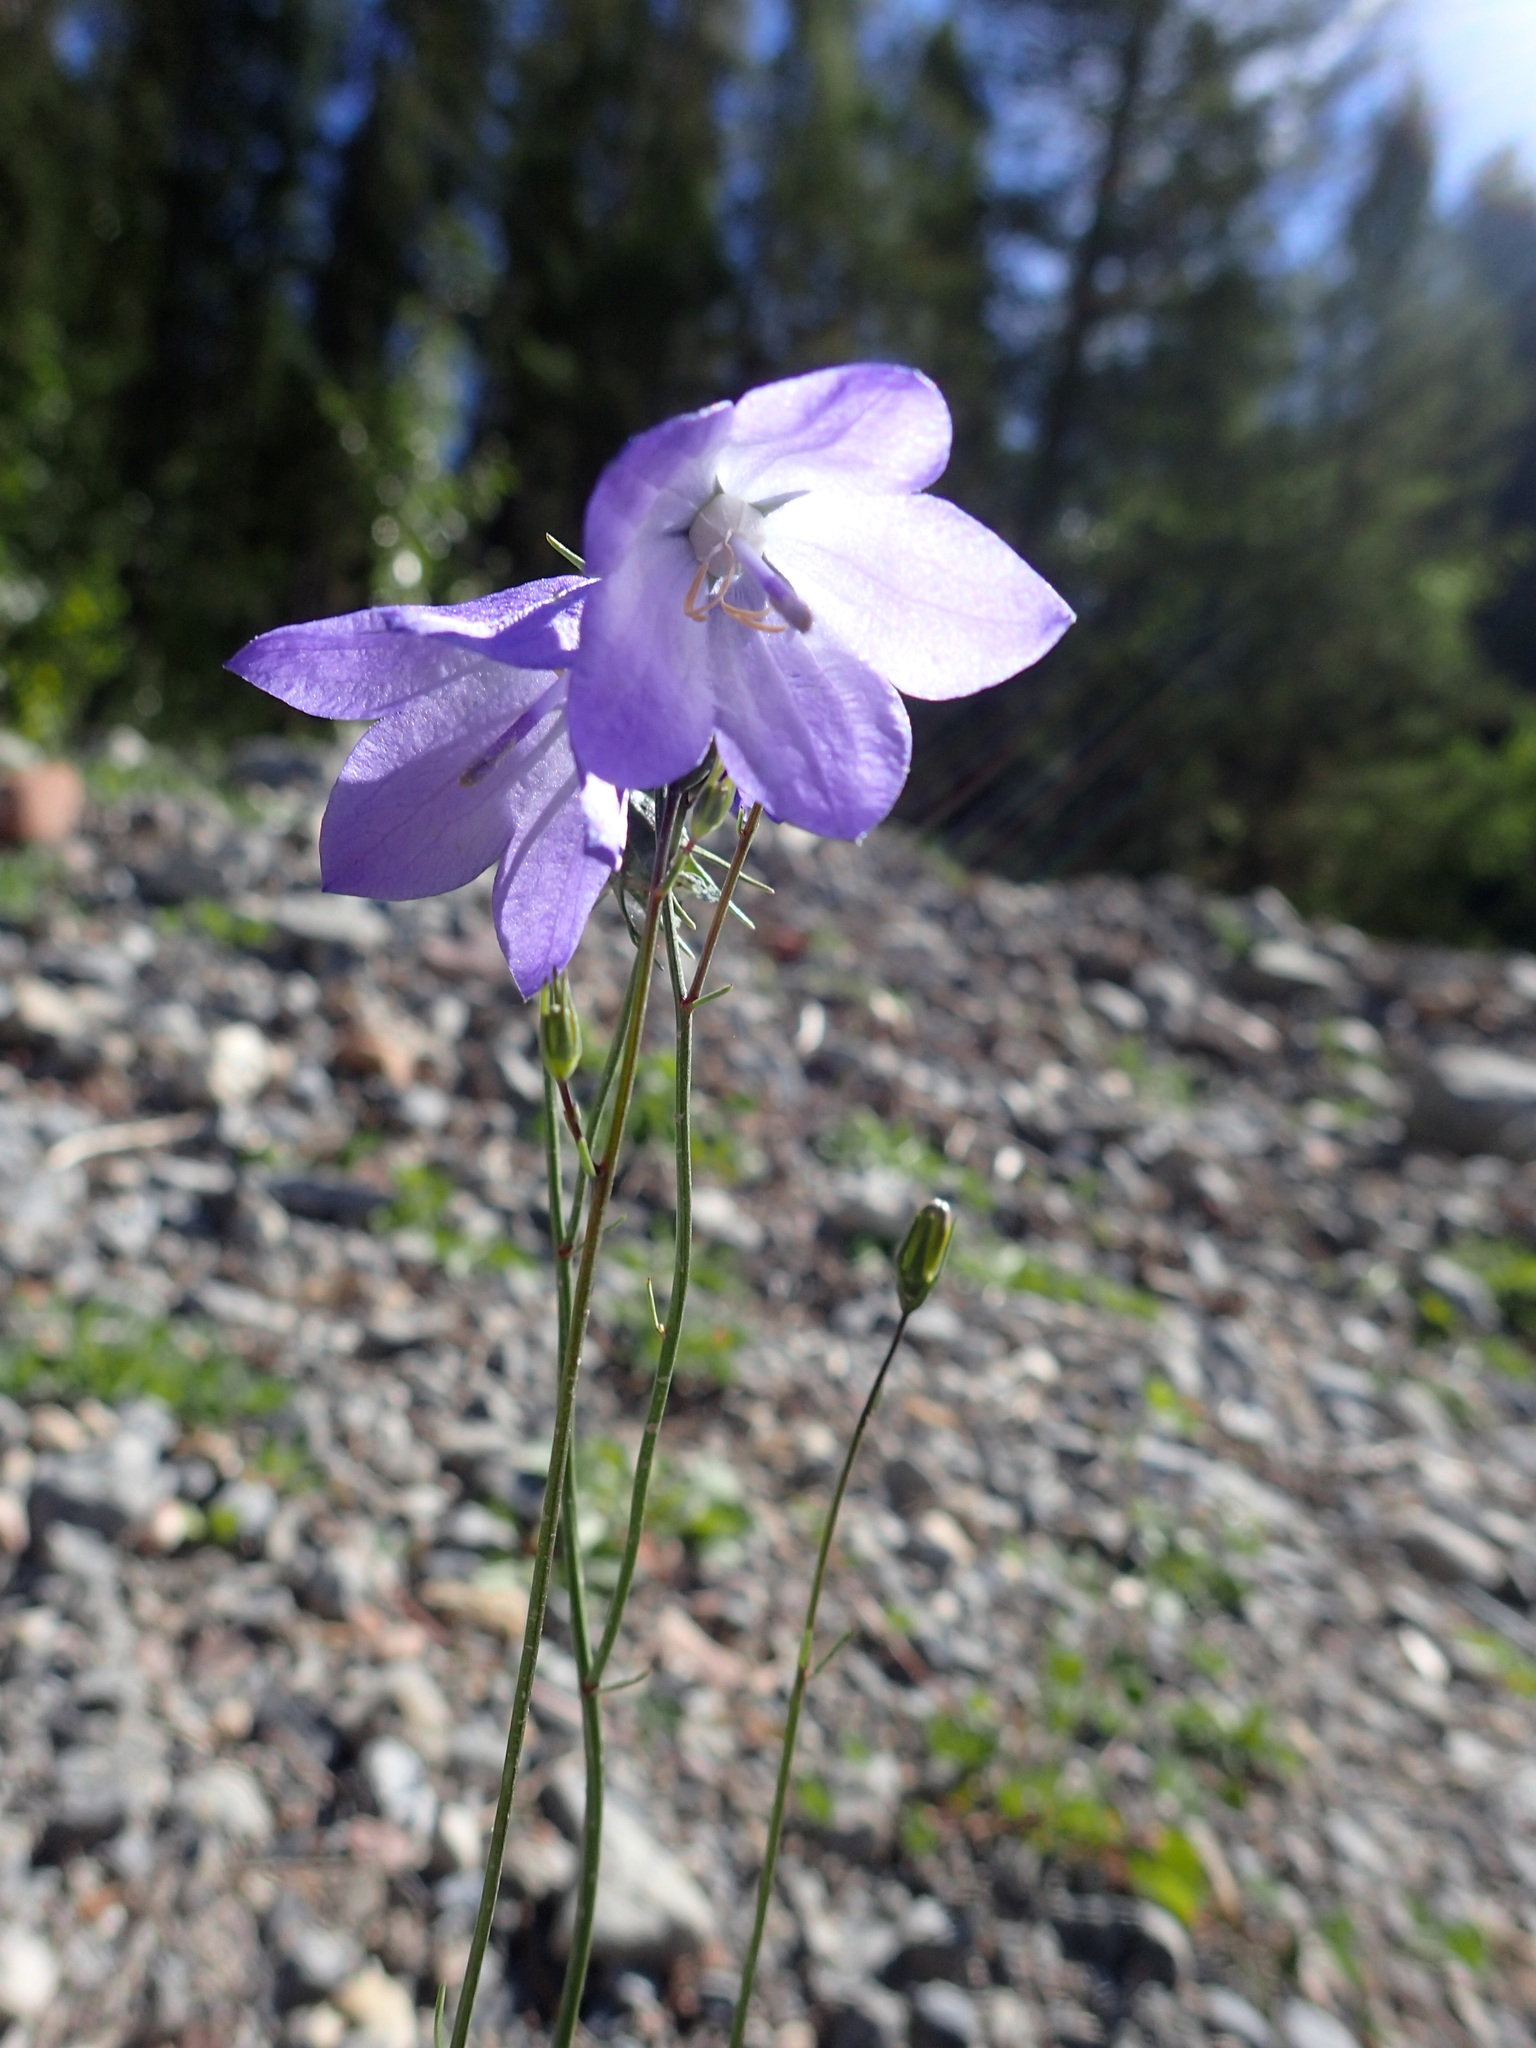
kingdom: Plantae
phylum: Tracheophyta
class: Magnoliopsida
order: Asterales
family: Campanulaceae
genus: Campanula
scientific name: Campanula alaskana
